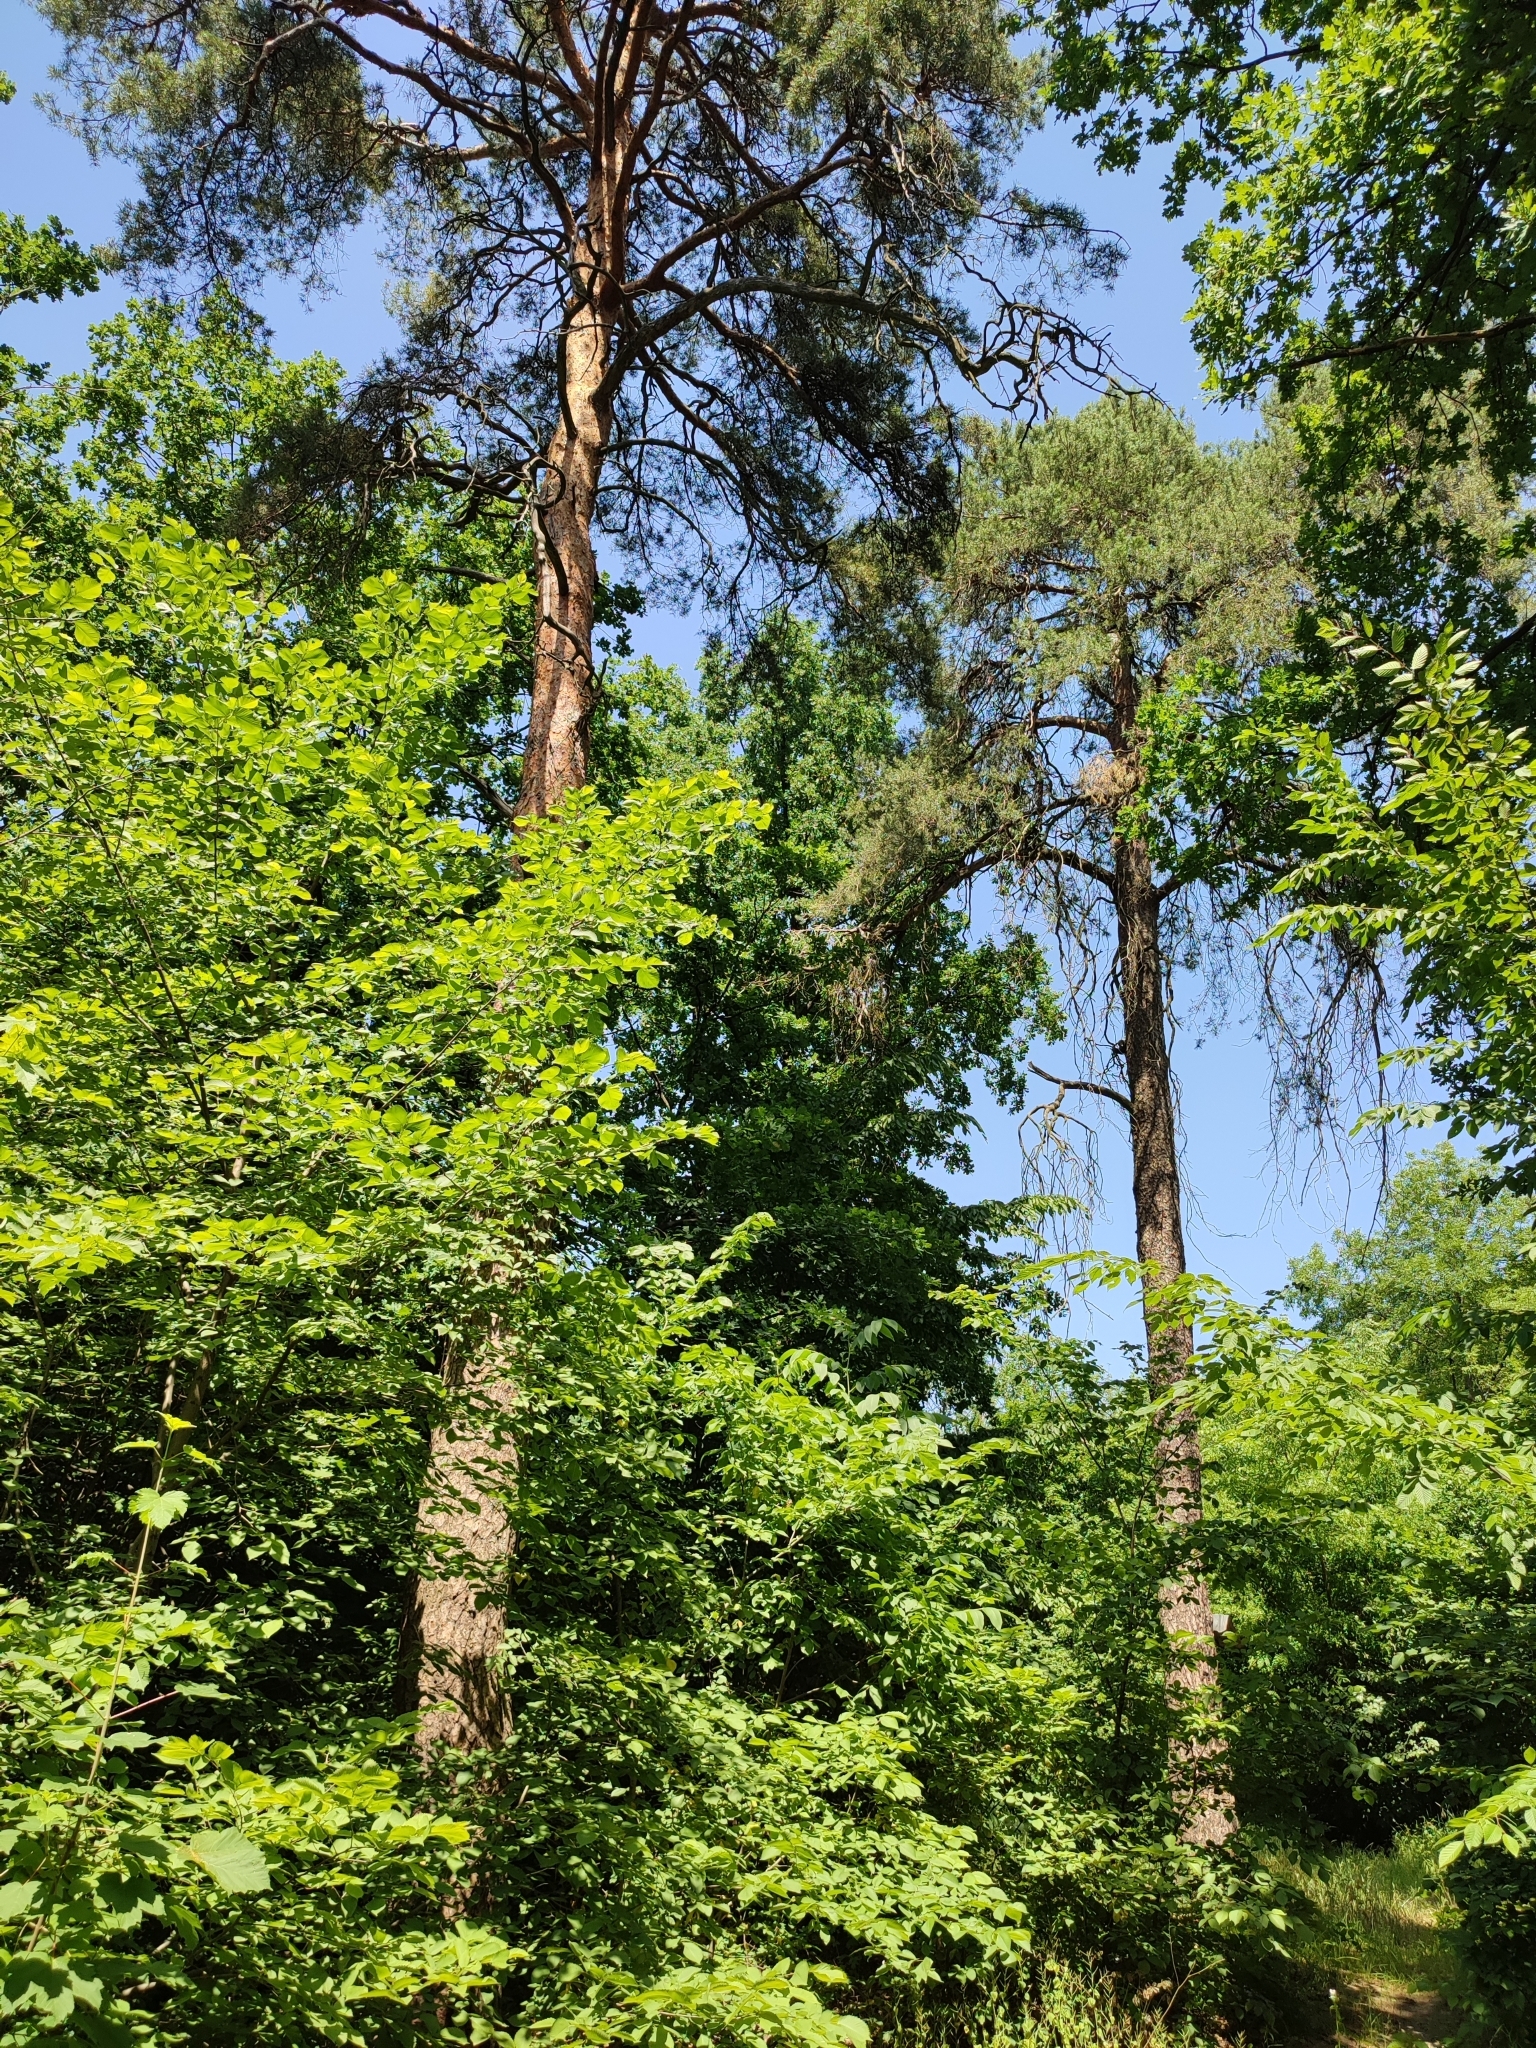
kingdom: Plantae
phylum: Tracheophyta
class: Pinopsida
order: Pinales
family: Pinaceae
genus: Pinus
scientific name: Pinus sylvestris
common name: Scots pine
